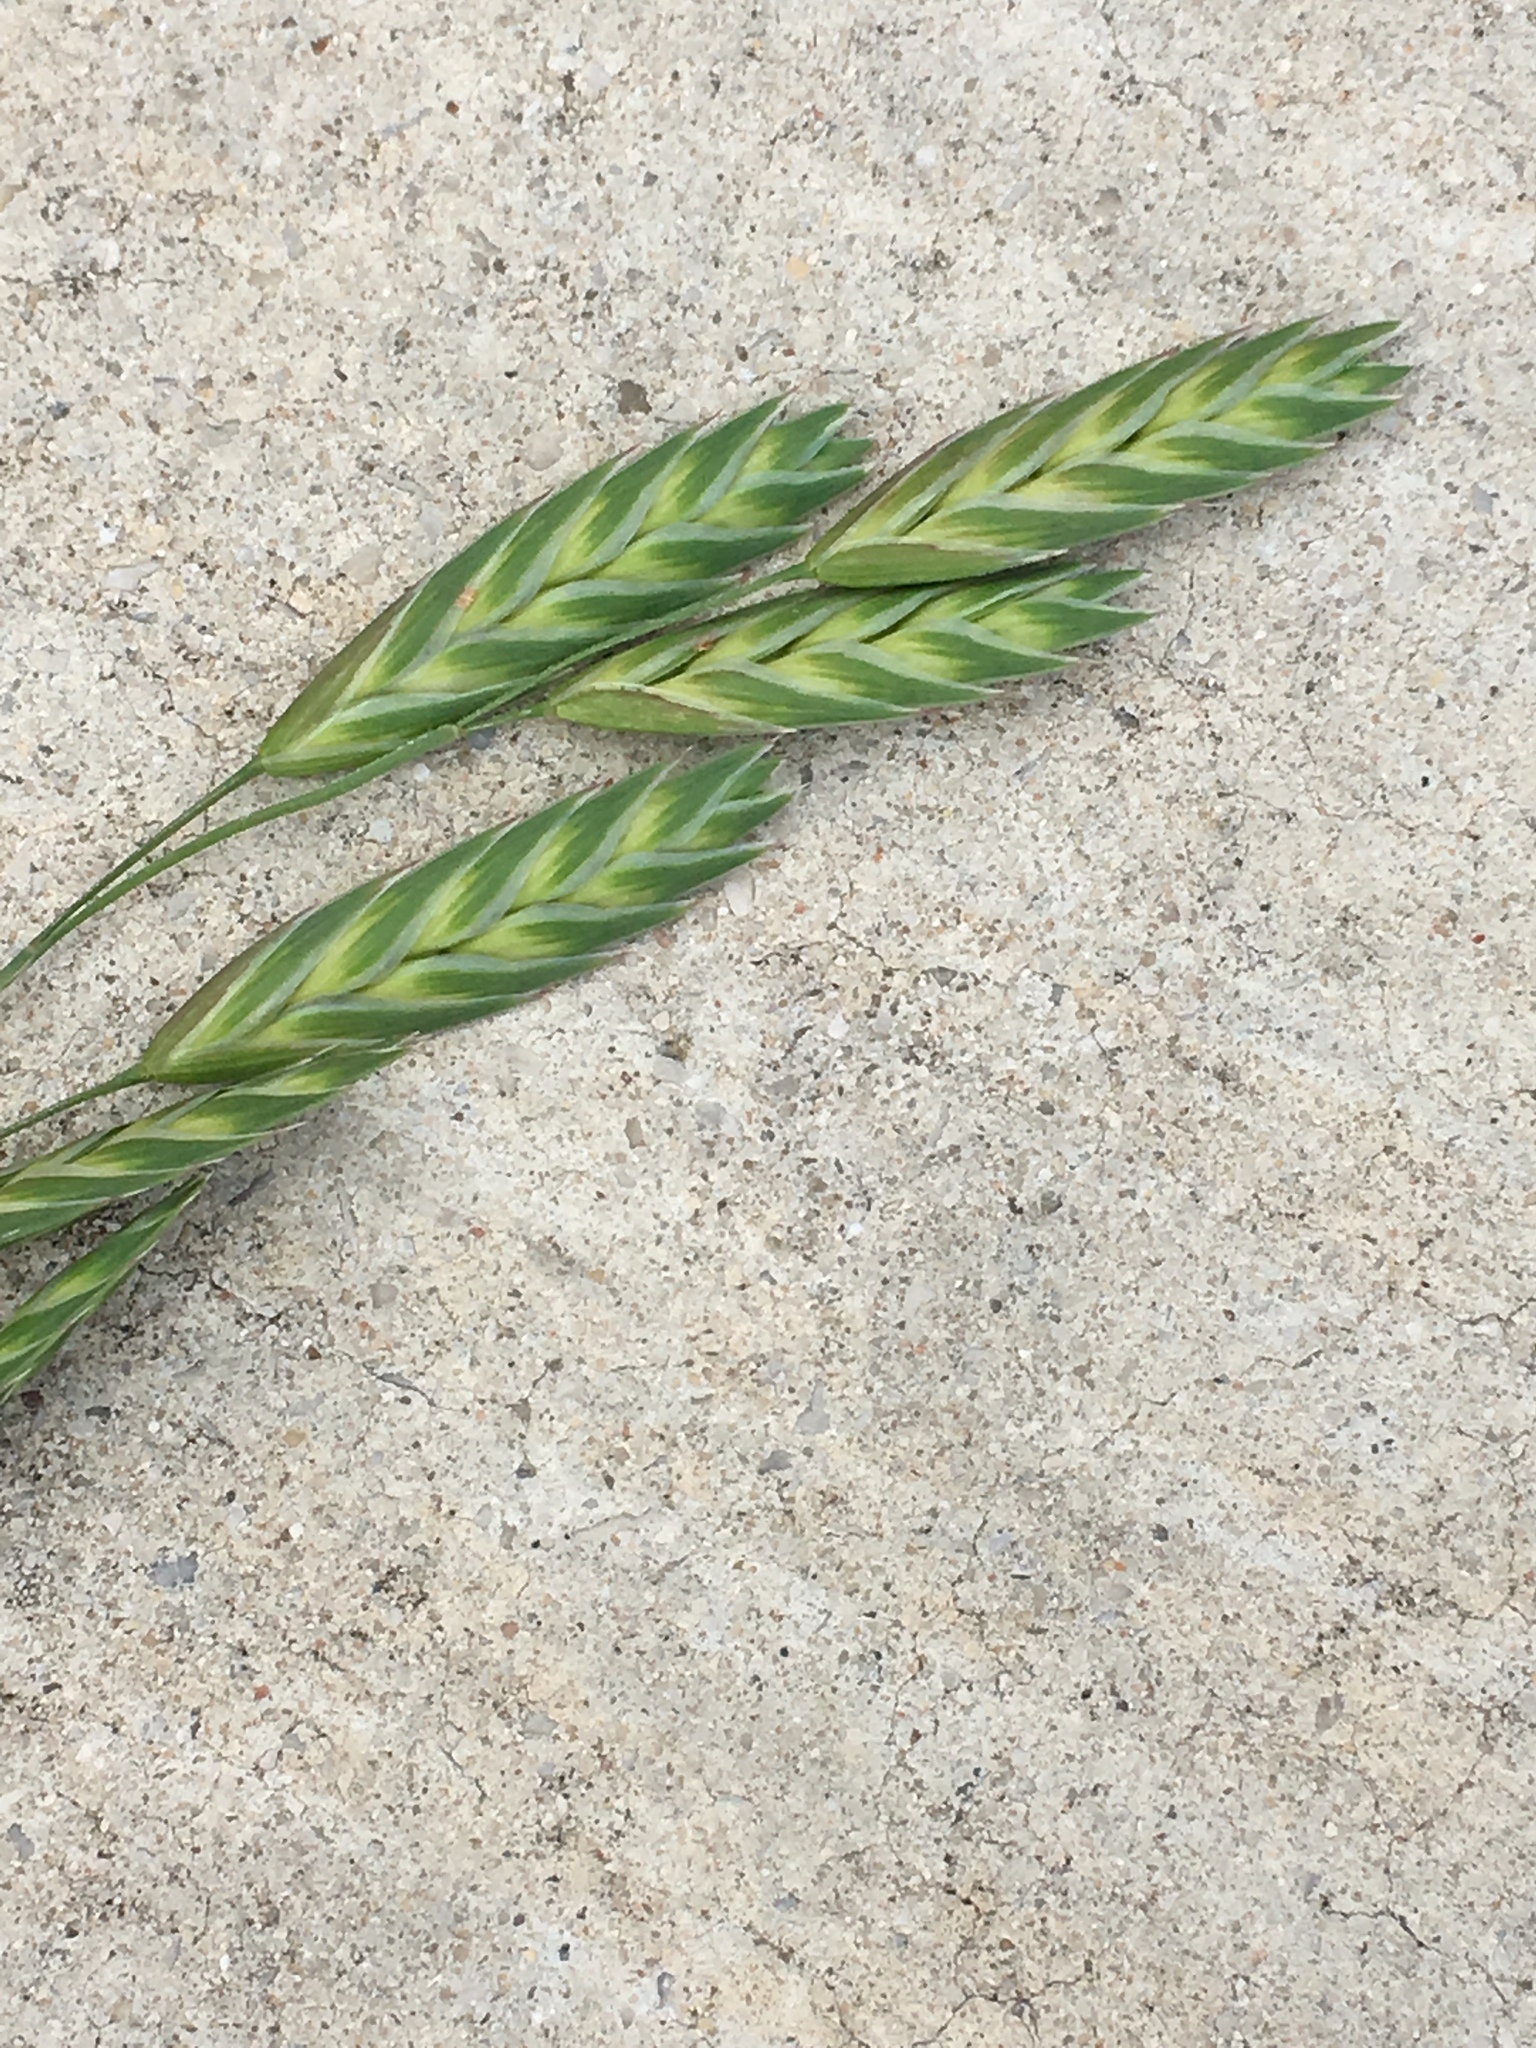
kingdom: Plantae
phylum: Tracheophyta
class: Liliopsida
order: Poales
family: Poaceae
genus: Bromus
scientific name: Bromus catharticus
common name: Rescuegrass
